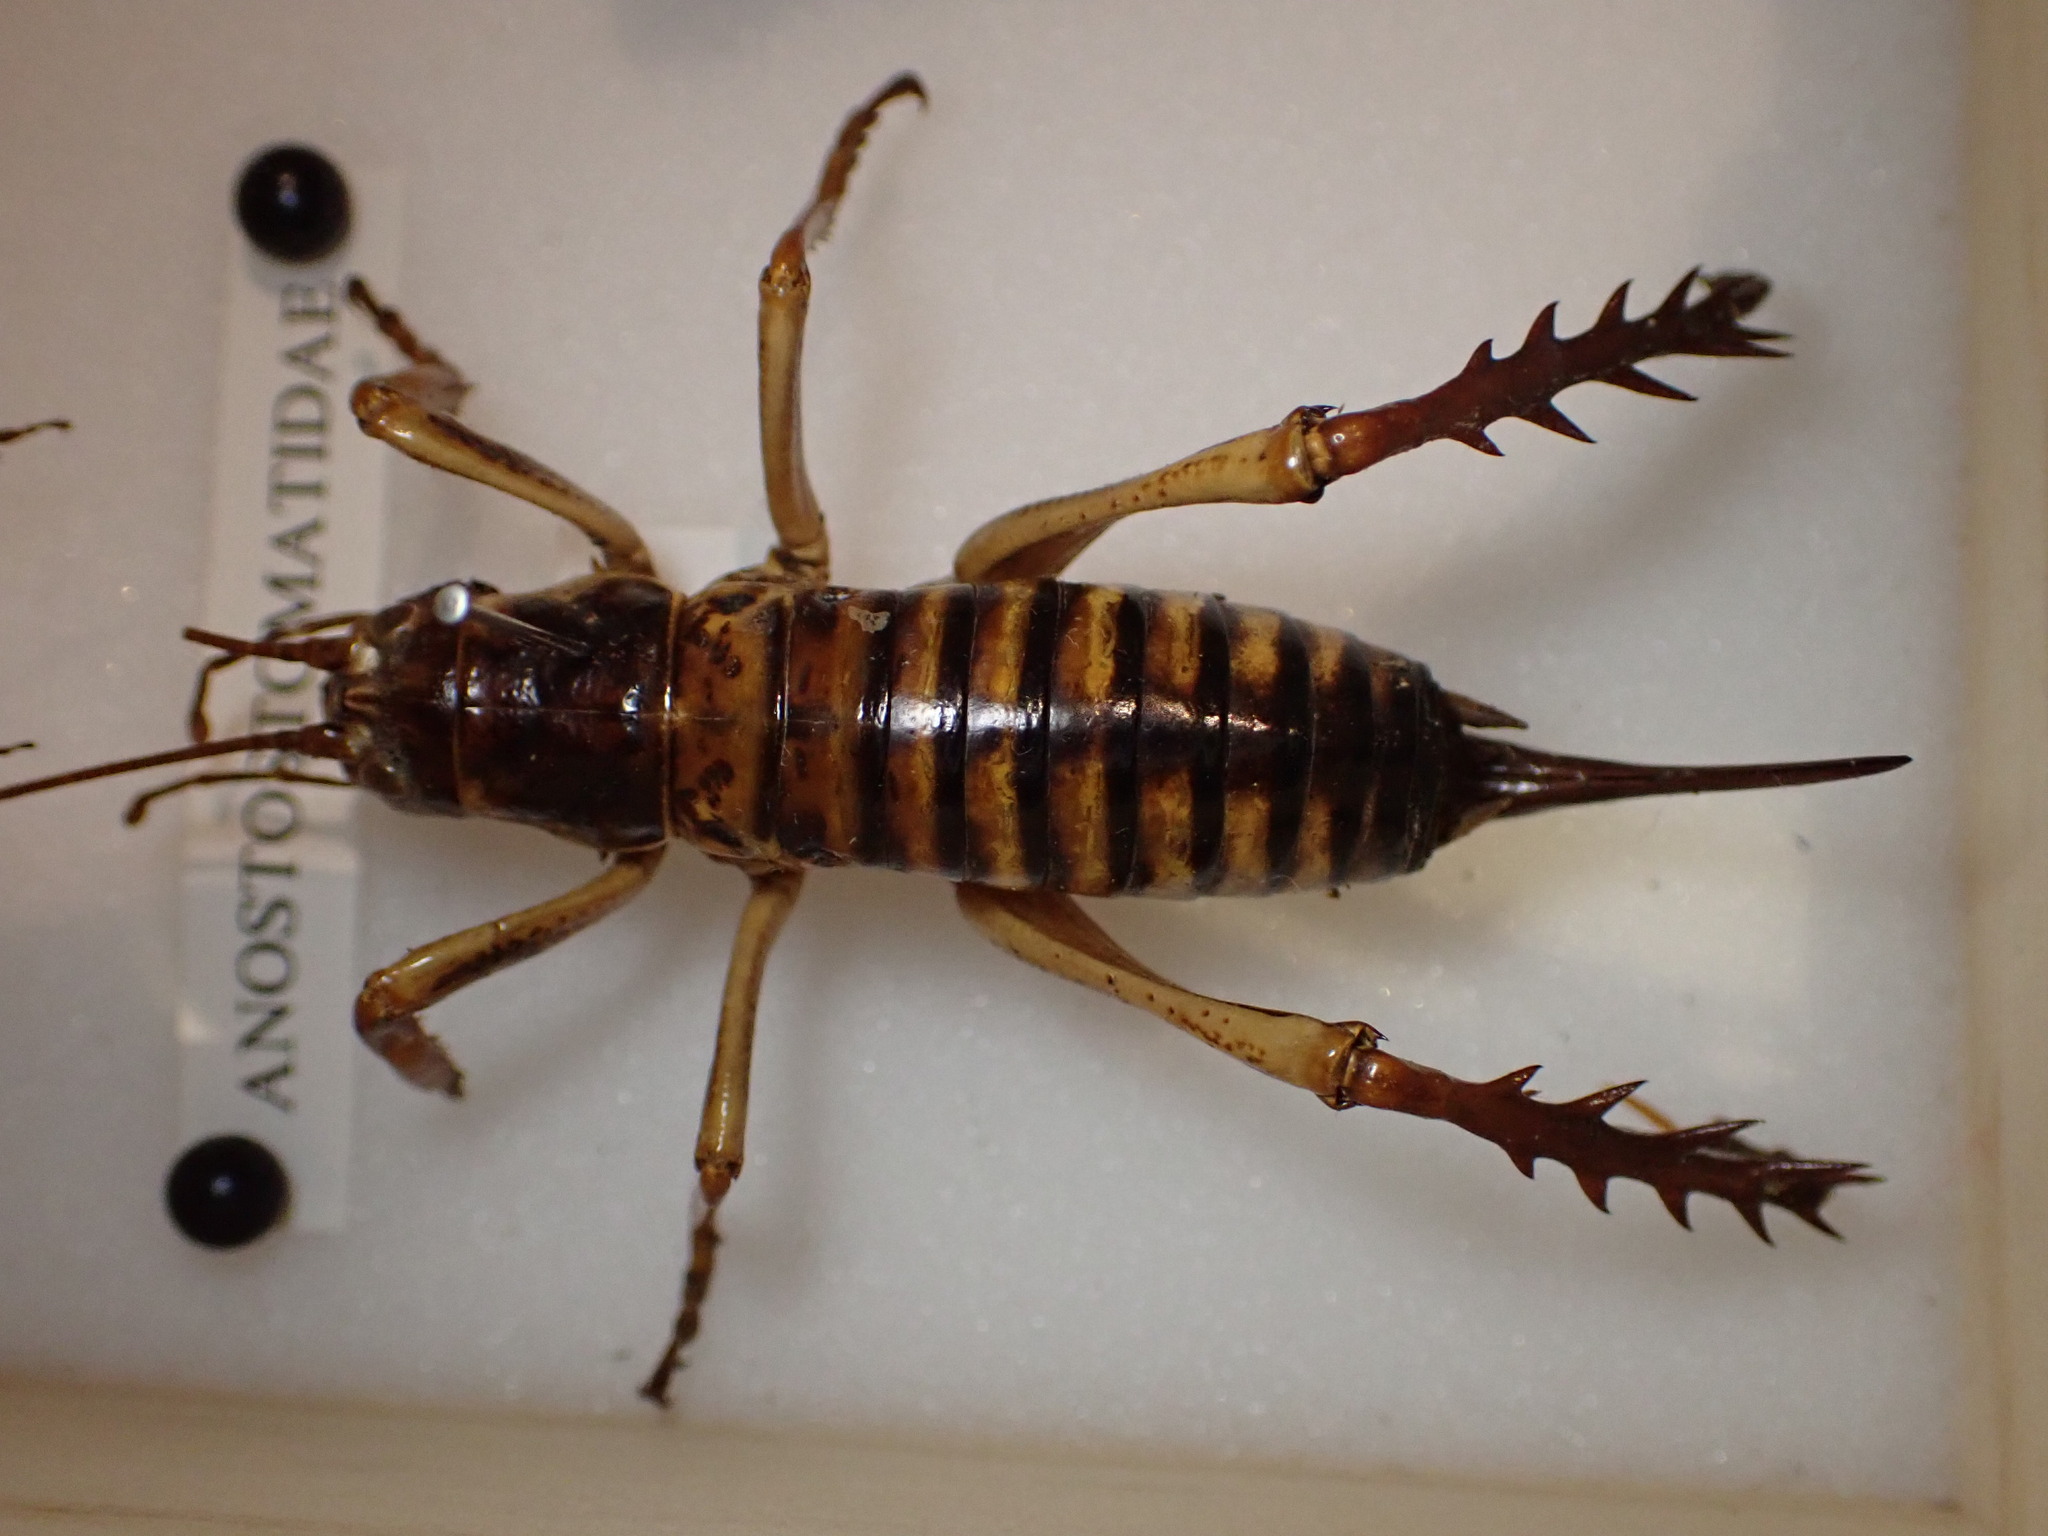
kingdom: Animalia
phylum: Arthropoda
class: Insecta
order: Orthoptera
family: Anostostomatidae
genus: Hemideina
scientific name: Hemideina crassidens
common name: Wellington tree weta
